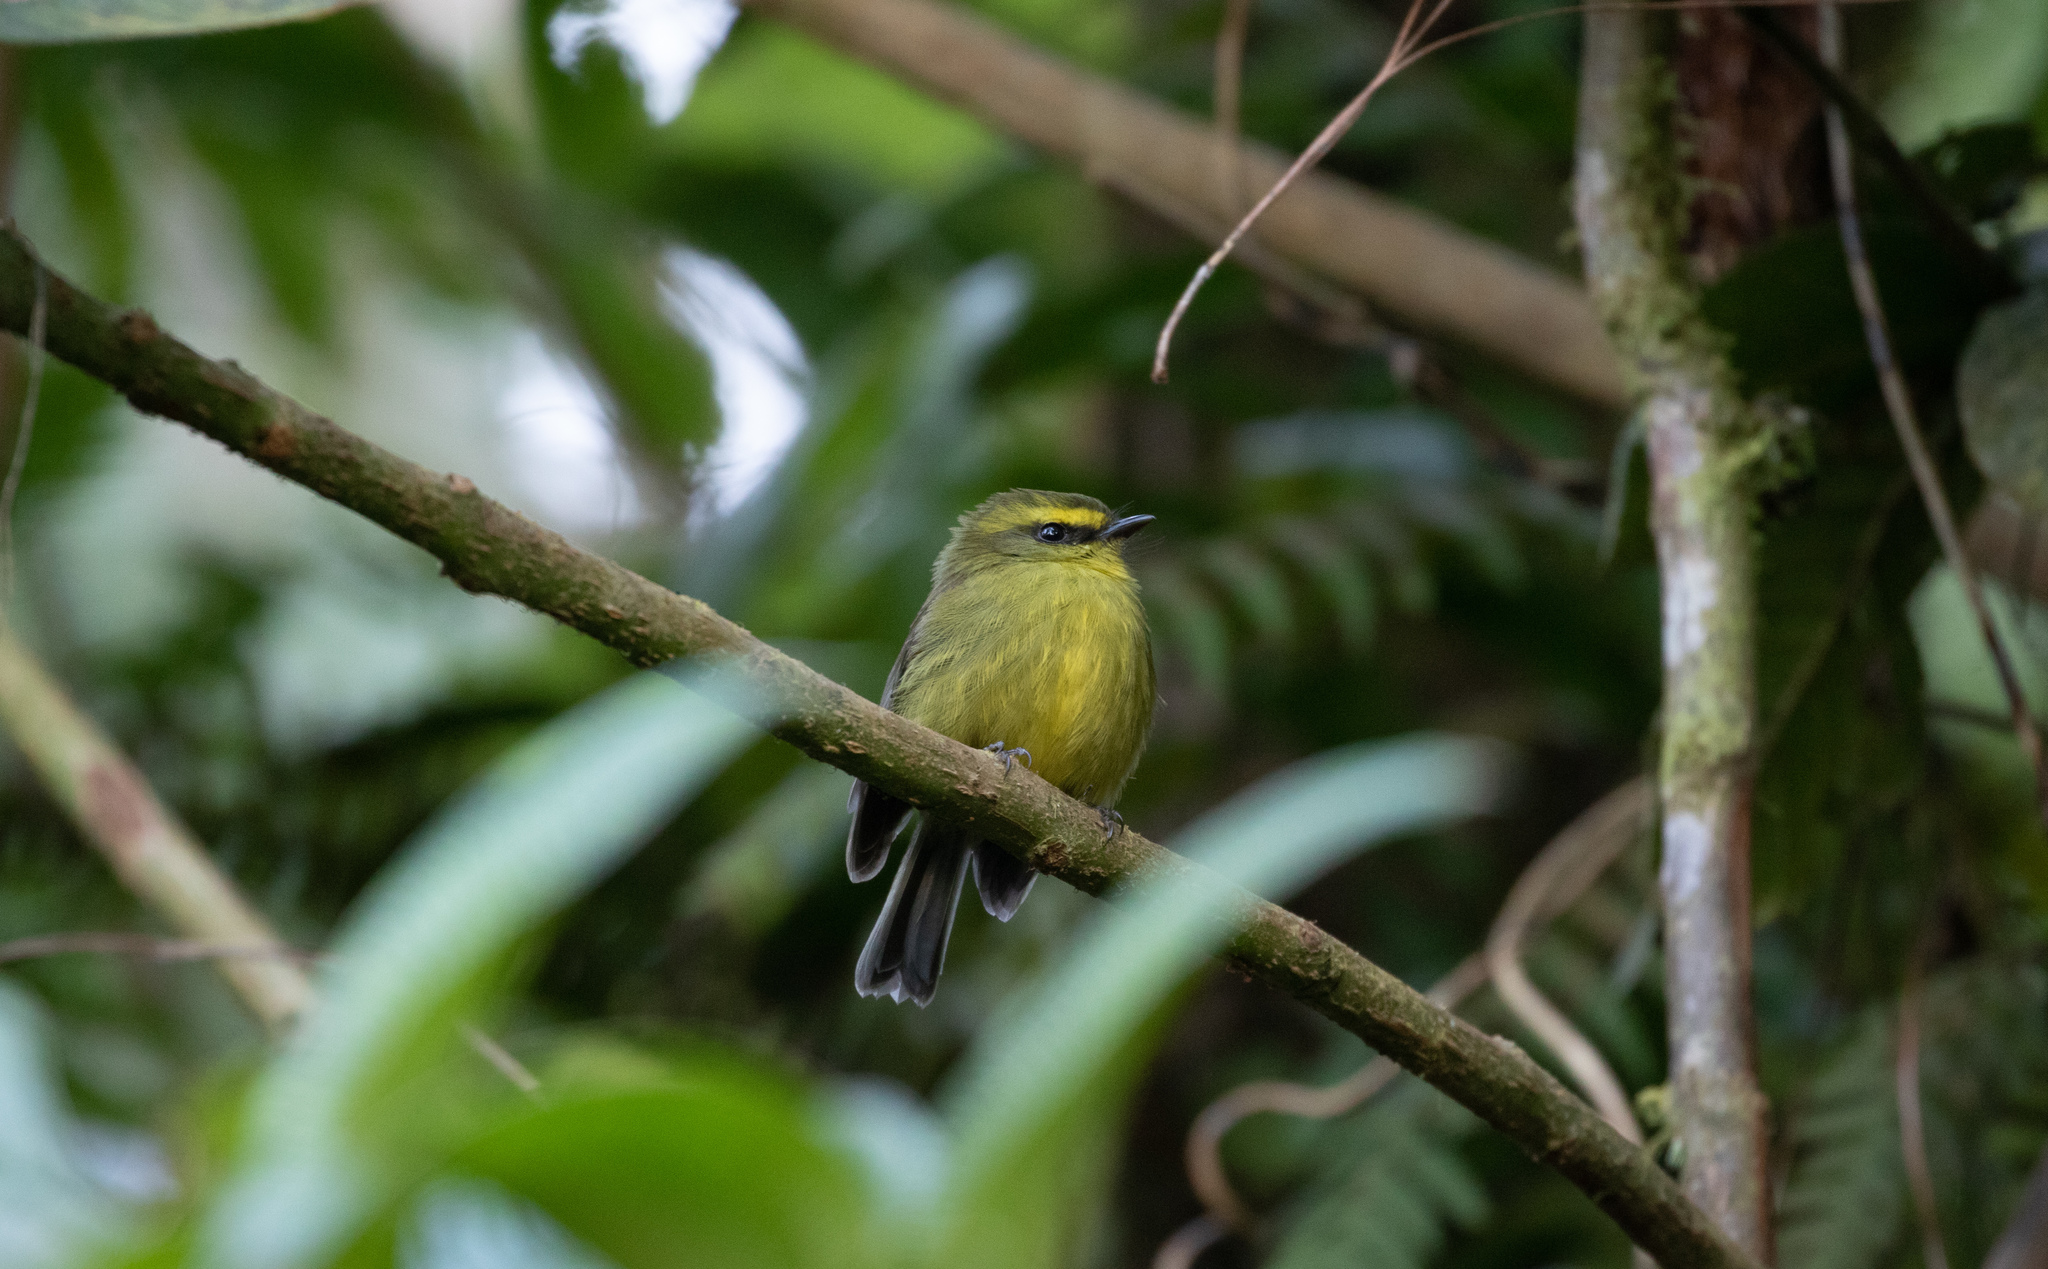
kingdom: Animalia
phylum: Chordata
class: Aves
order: Passeriformes
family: Tyrannidae
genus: Ochthoeca
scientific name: Ochthoeca diadema
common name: Yellow-bellied chat-tyrant
